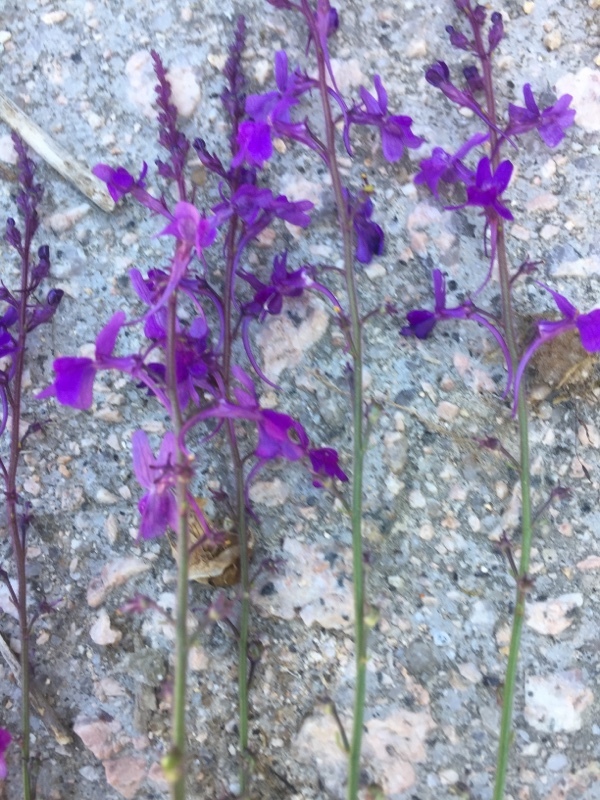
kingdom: Plantae
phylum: Tracheophyta
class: Magnoliopsida
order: Lamiales
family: Plantaginaceae
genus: Linaria
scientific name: Linaria elegans
